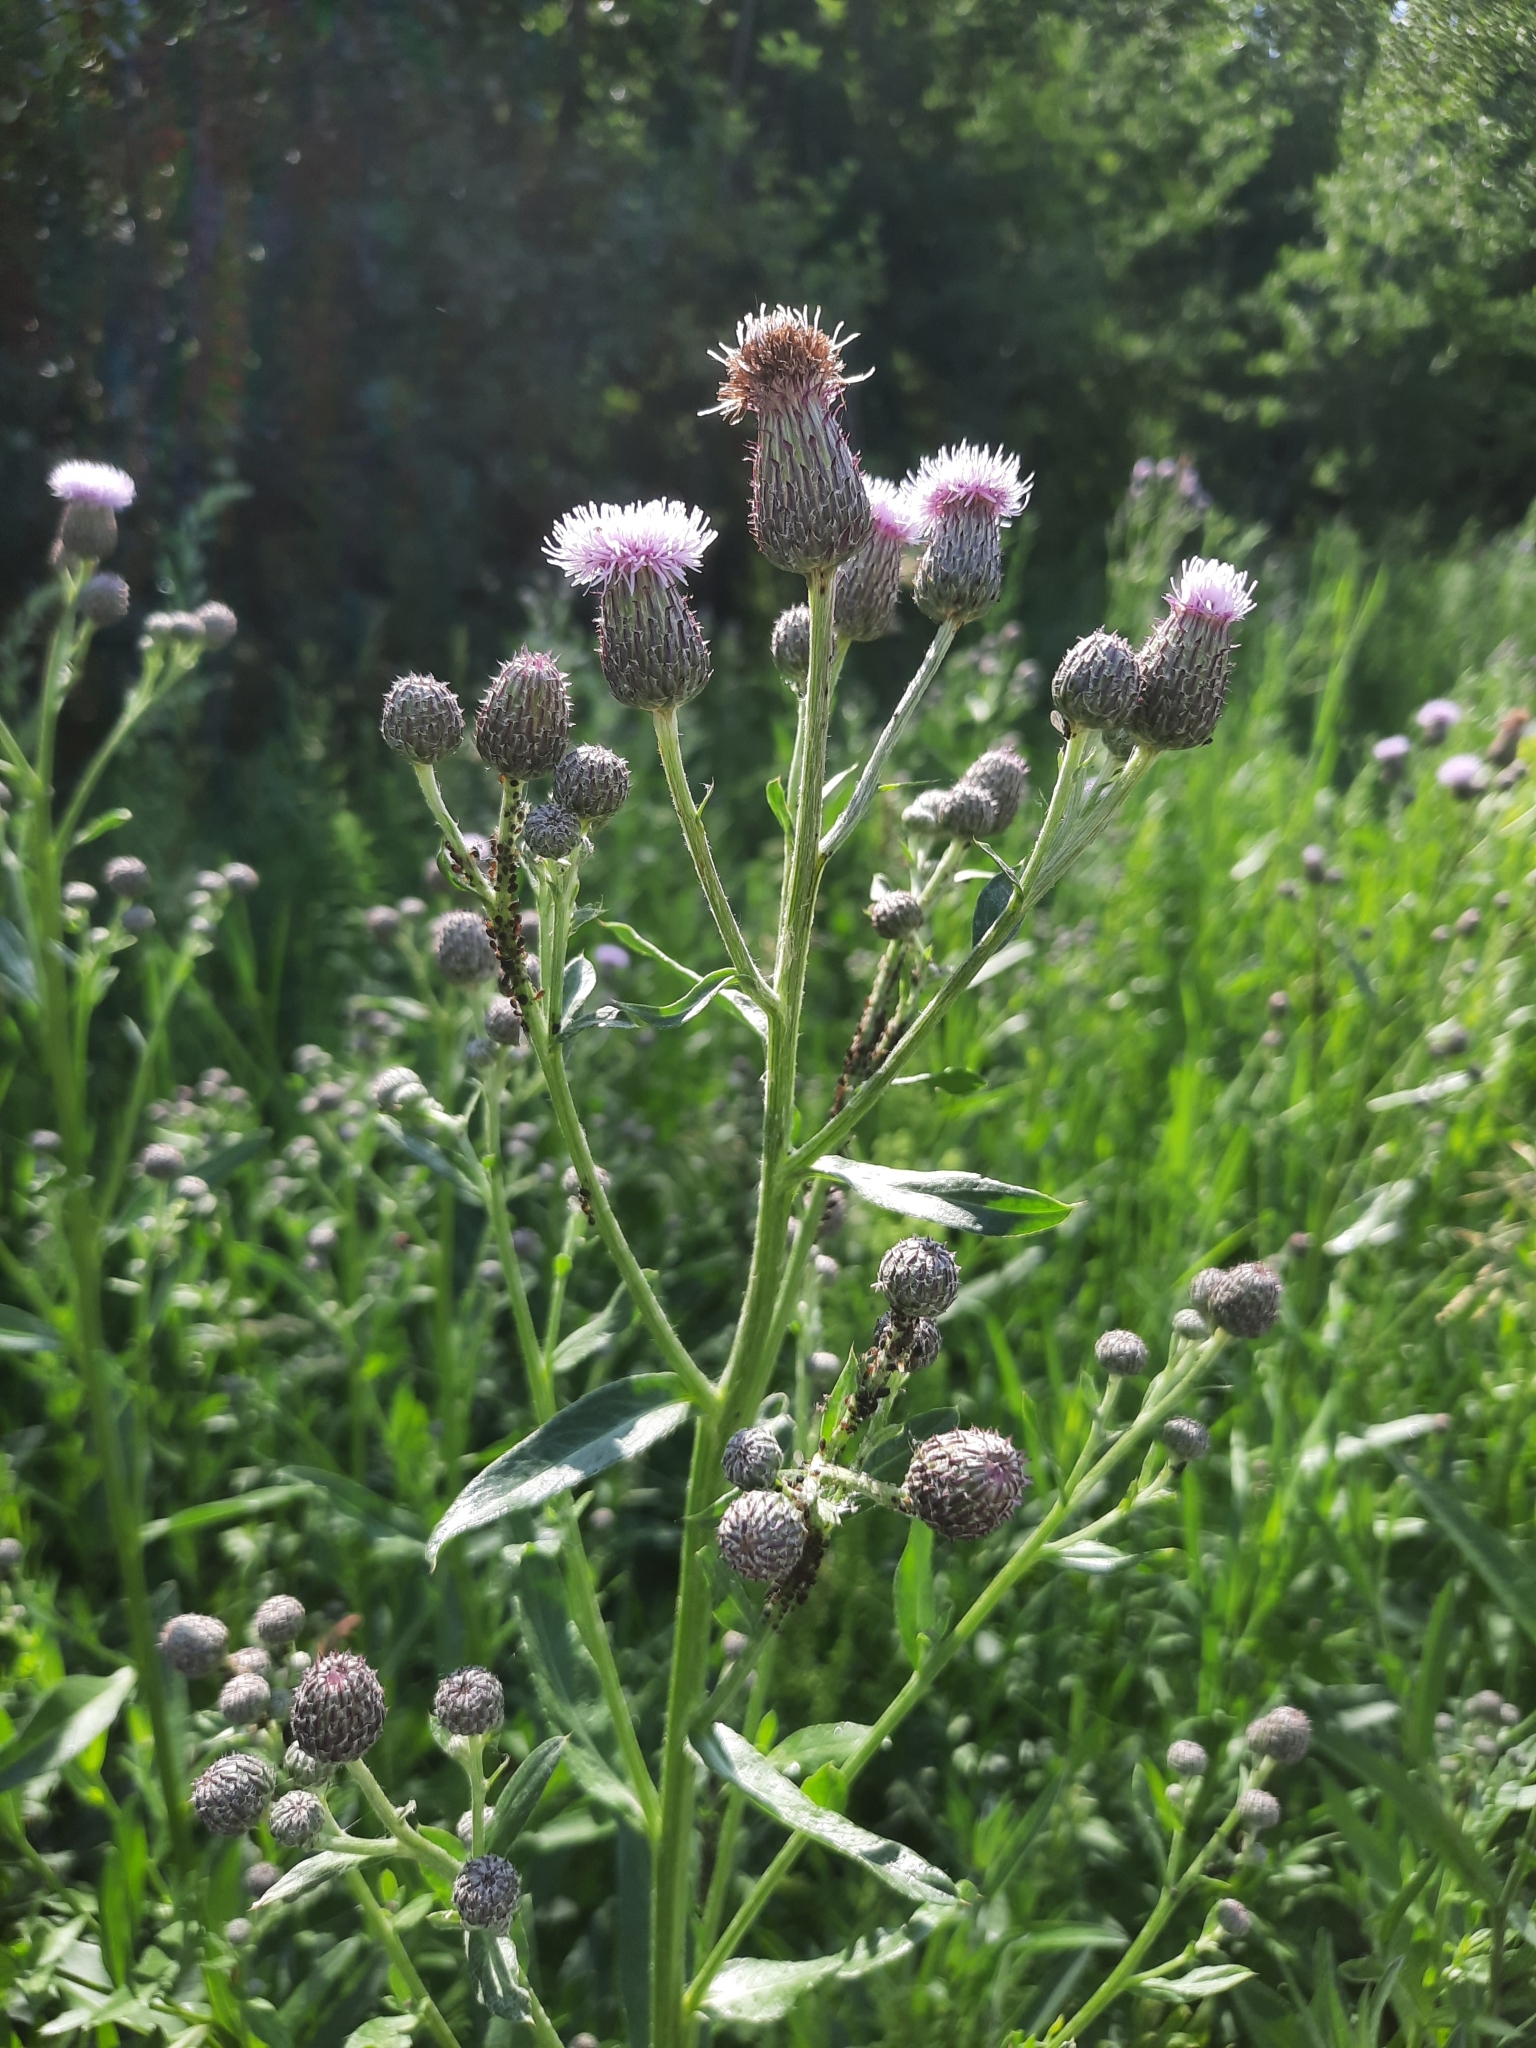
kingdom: Plantae
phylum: Tracheophyta
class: Magnoliopsida
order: Asterales
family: Asteraceae
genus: Cirsium
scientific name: Cirsium arvense
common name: Creeping thistle
